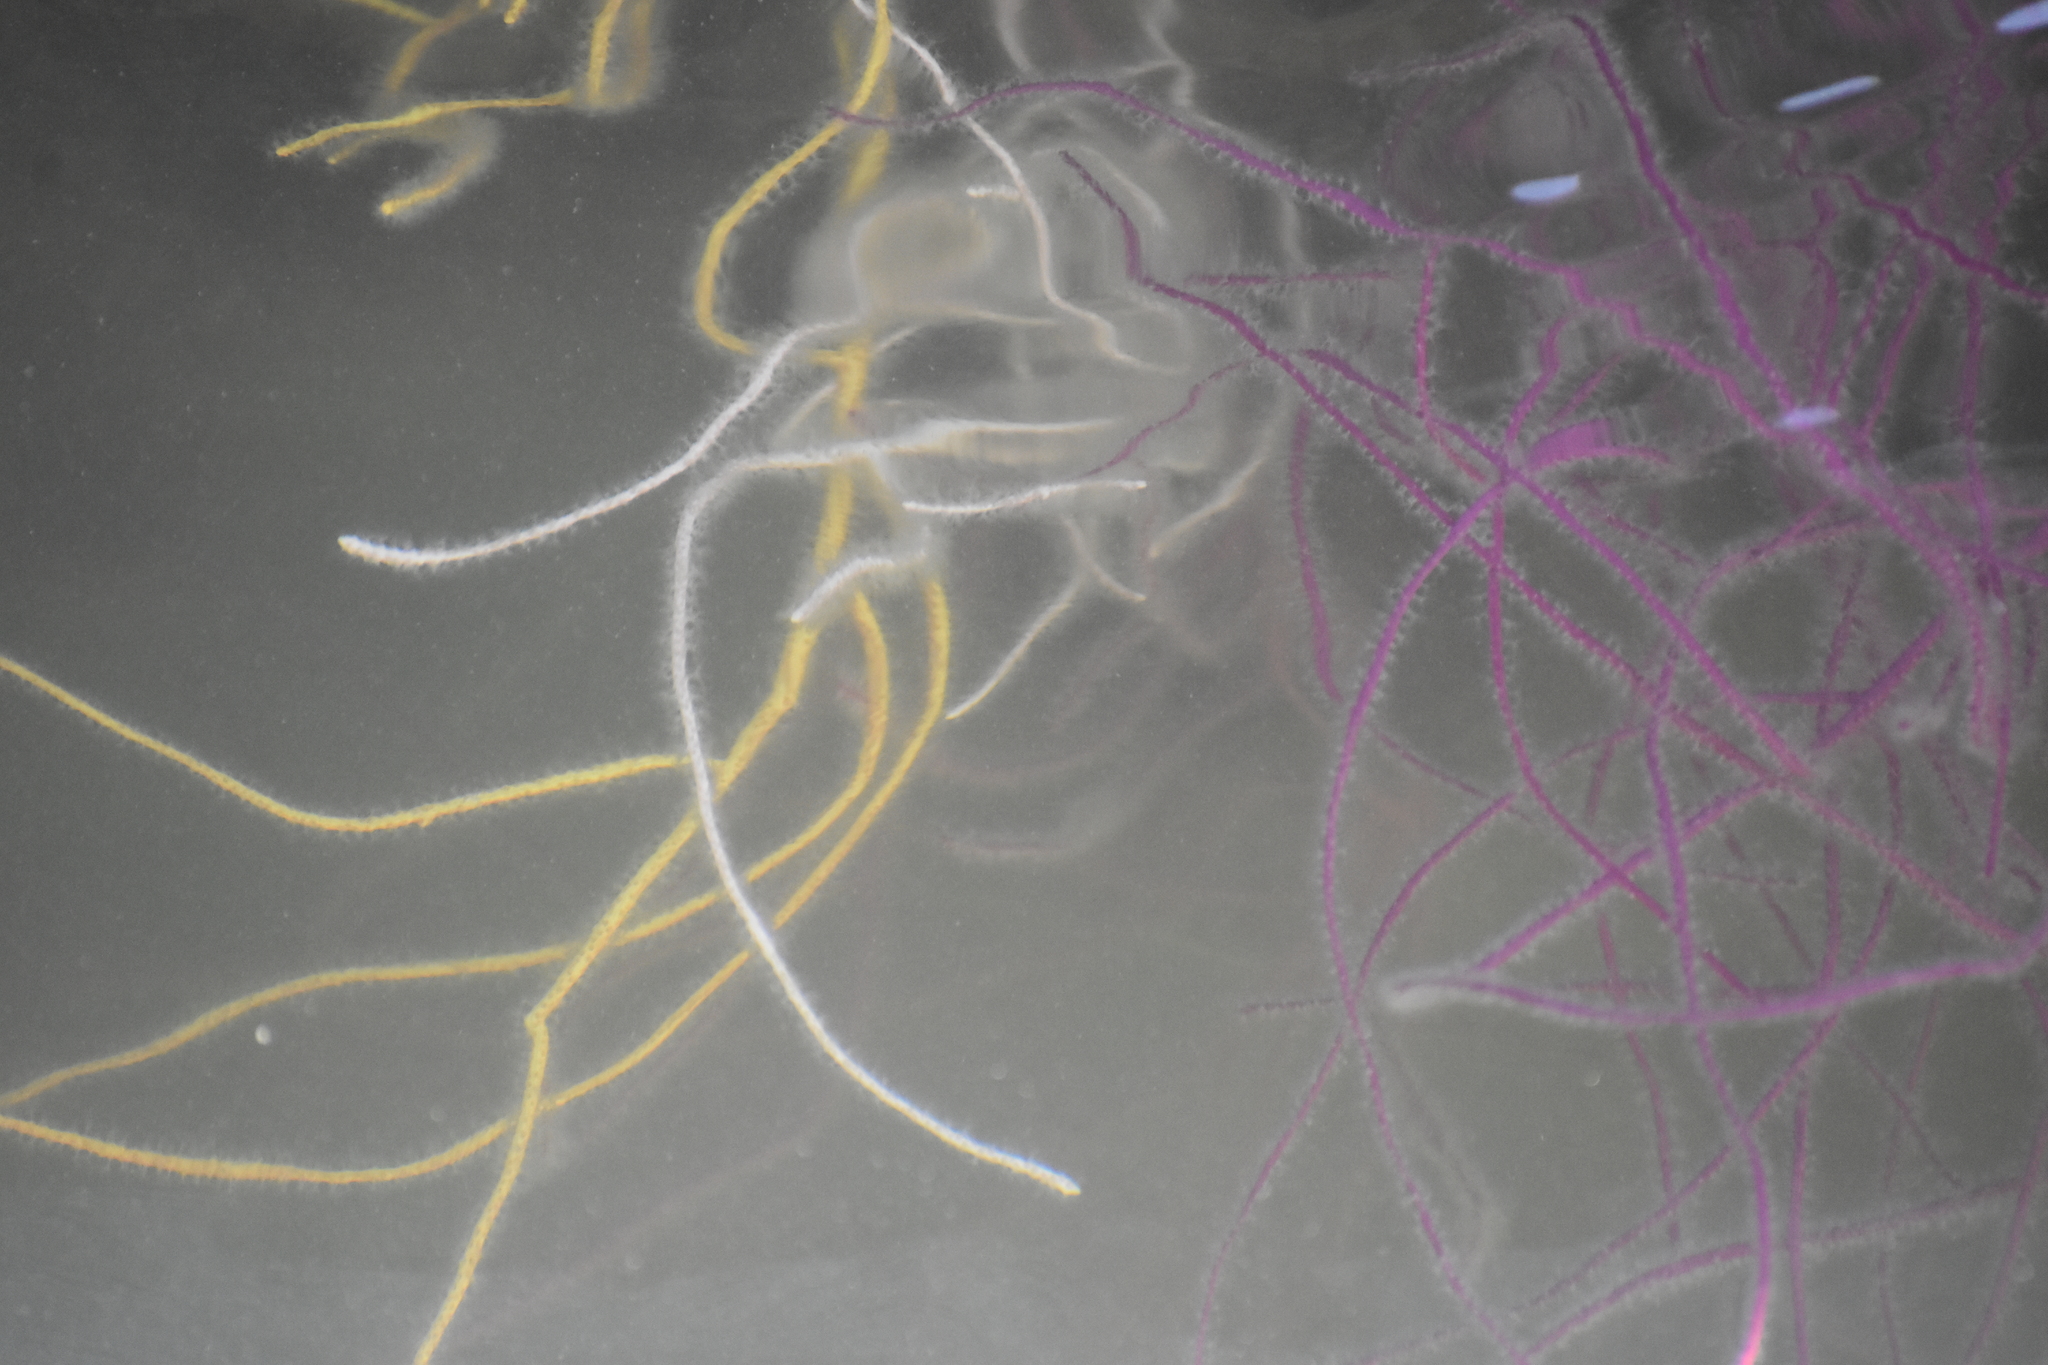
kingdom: Animalia
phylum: Cnidaria
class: Anthozoa
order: Malacalcyonacea
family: Gorgoniidae
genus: Leptogorgia
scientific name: Leptogorgia virgulata
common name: Colorful sea whip
